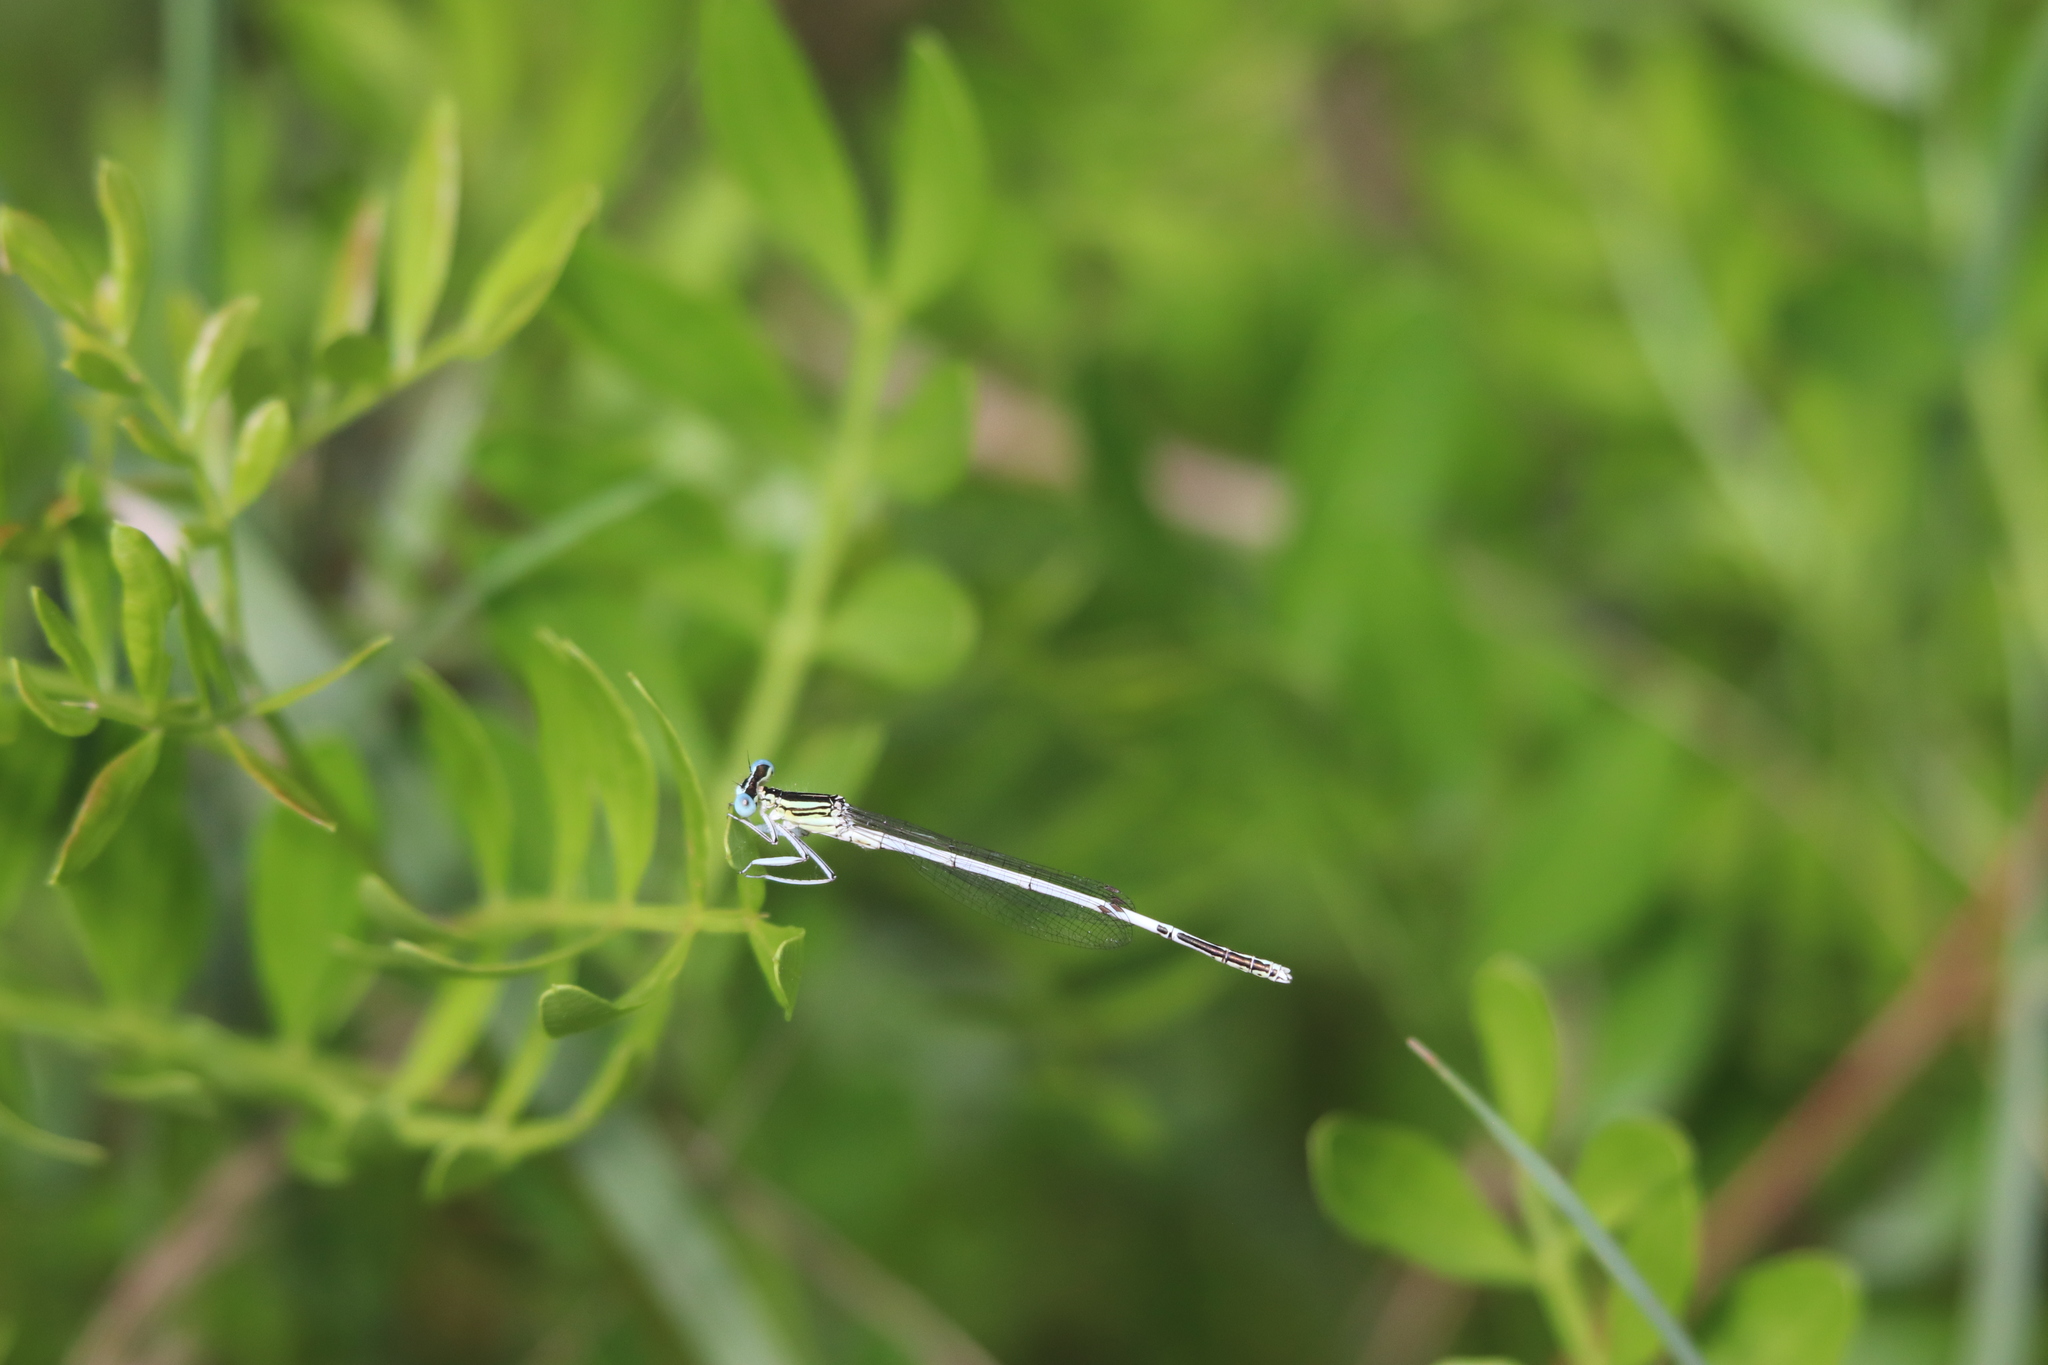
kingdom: Animalia
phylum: Arthropoda
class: Insecta
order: Odonata
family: Platycnemididae
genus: Platycnemis
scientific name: Platycnemis latipes
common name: White featherleg
